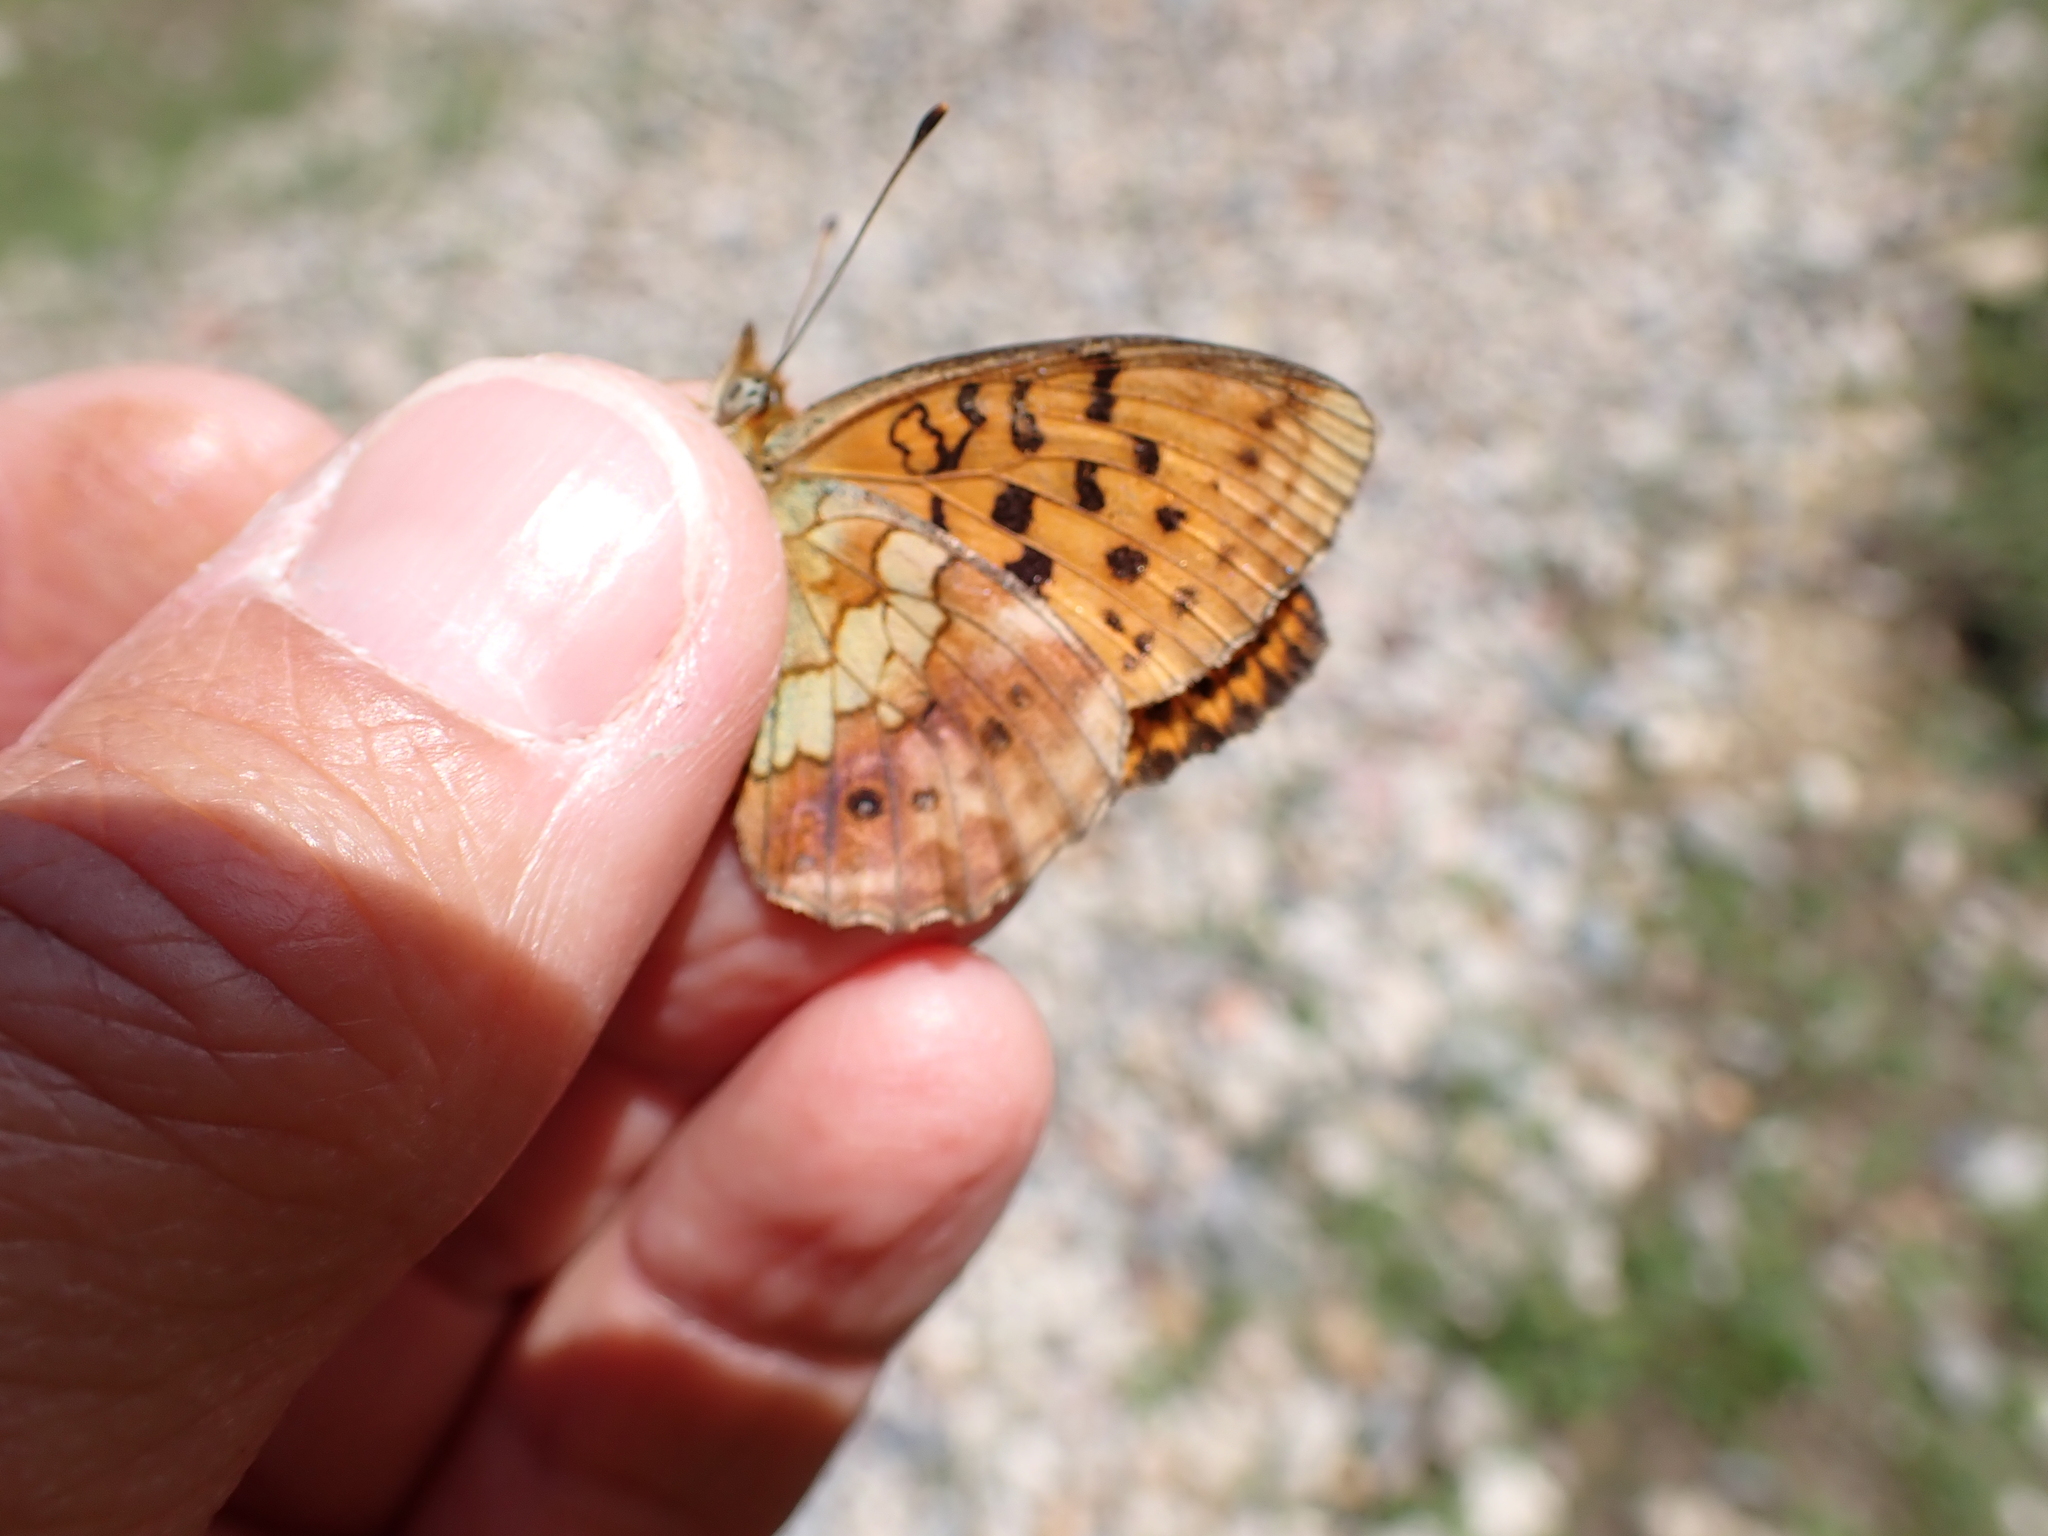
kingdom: Animalia
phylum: Arthropoda
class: Insecta
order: Lepidoptera
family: Nymphalidae
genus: Brenthis
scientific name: Brenthis daphne
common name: Marbled fritillary
